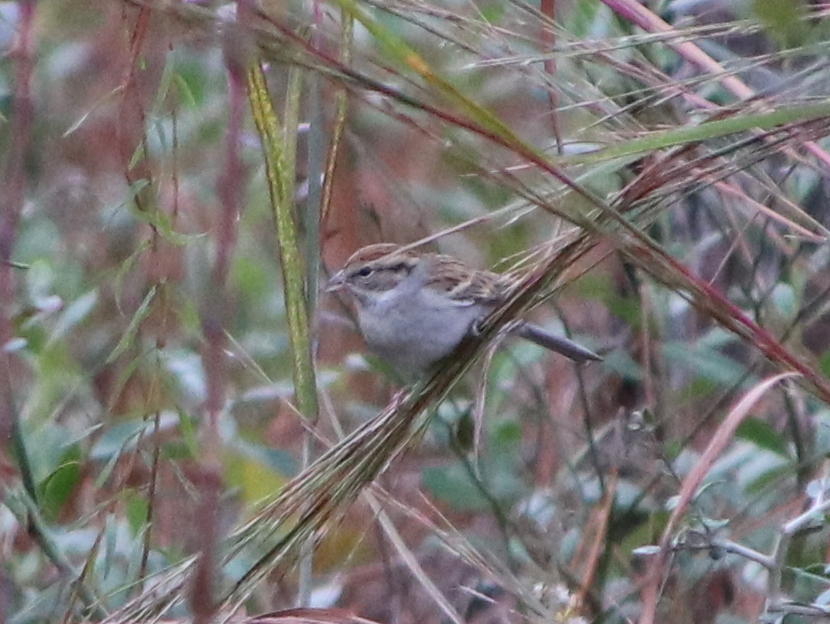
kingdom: Animalia
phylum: Chordata
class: Aves
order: Passeriformes
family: Passerellidae
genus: Spizella
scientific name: Spizella passerina
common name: Chipping sparrow
